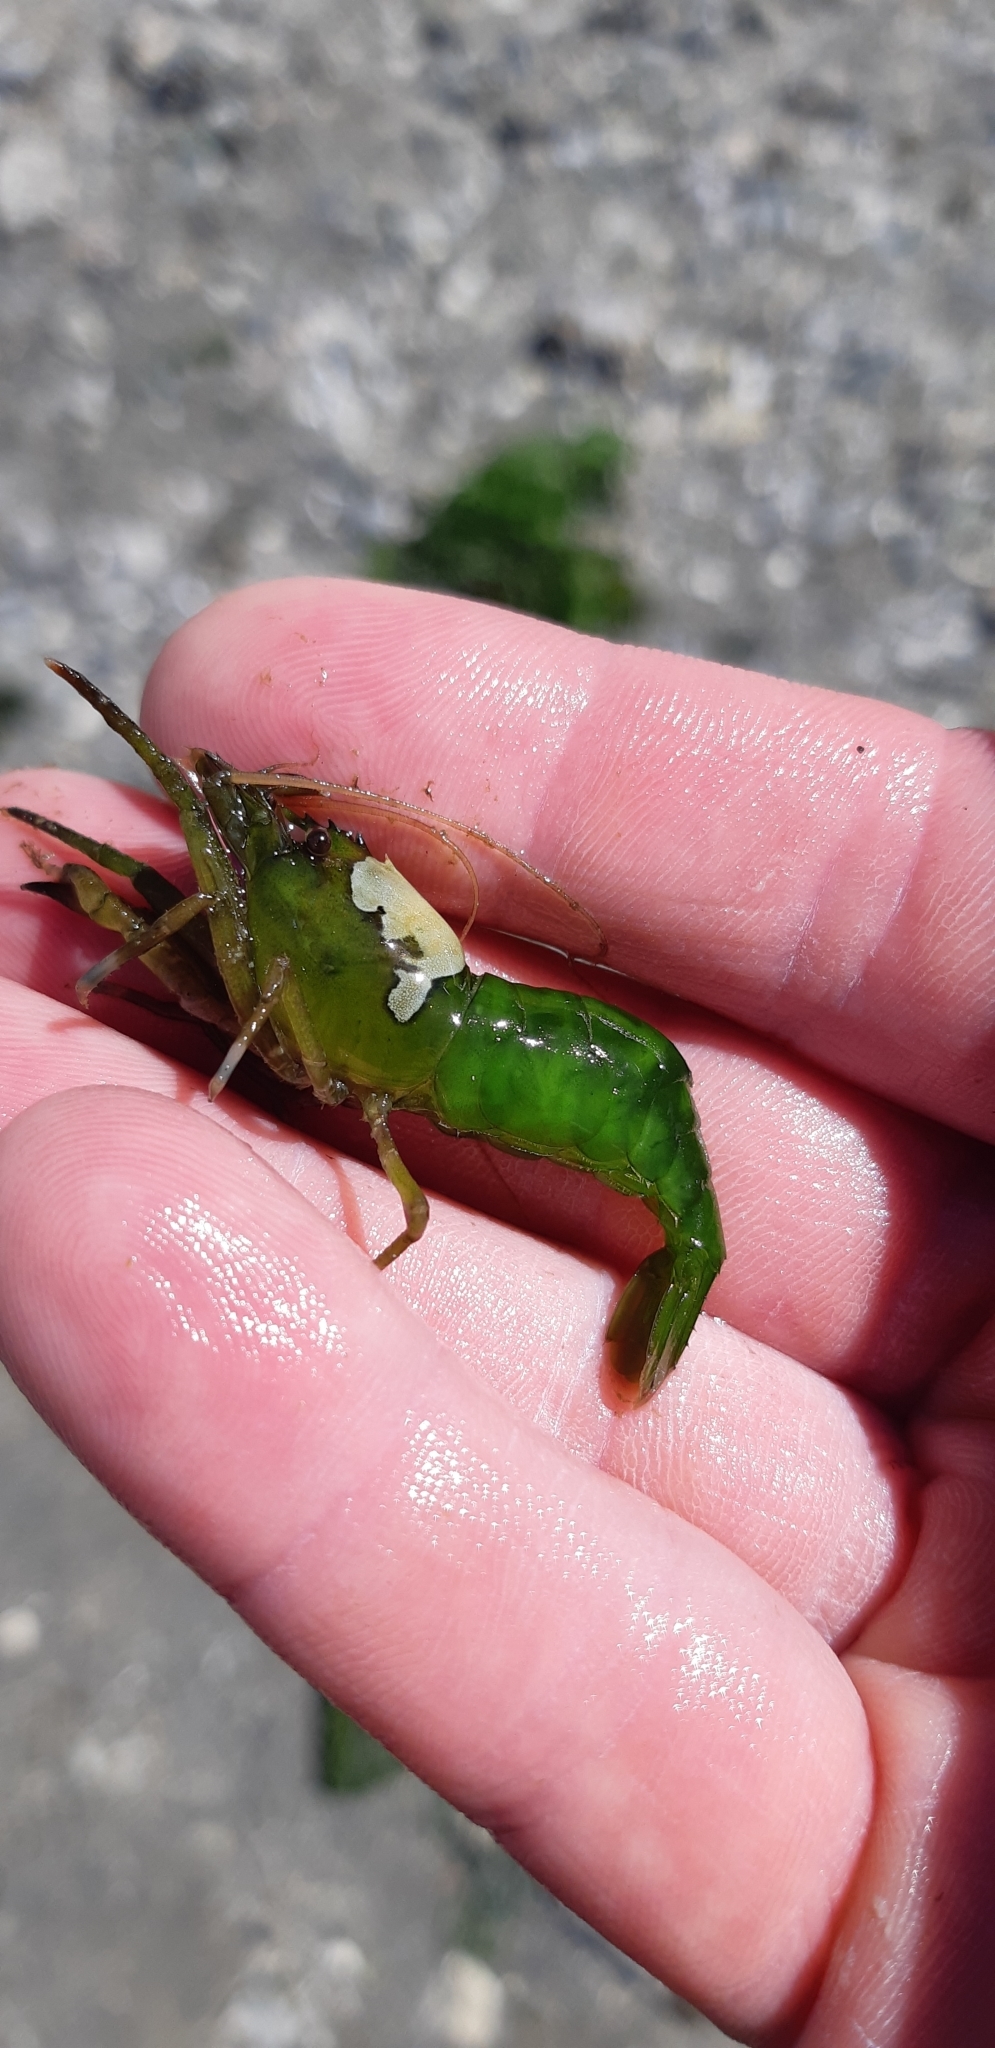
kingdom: Animalia
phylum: Arthropoda
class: Malacostraca
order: Decapoda
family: Thoridae
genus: Heptacarpus
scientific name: Heptacarpus brevirostris
